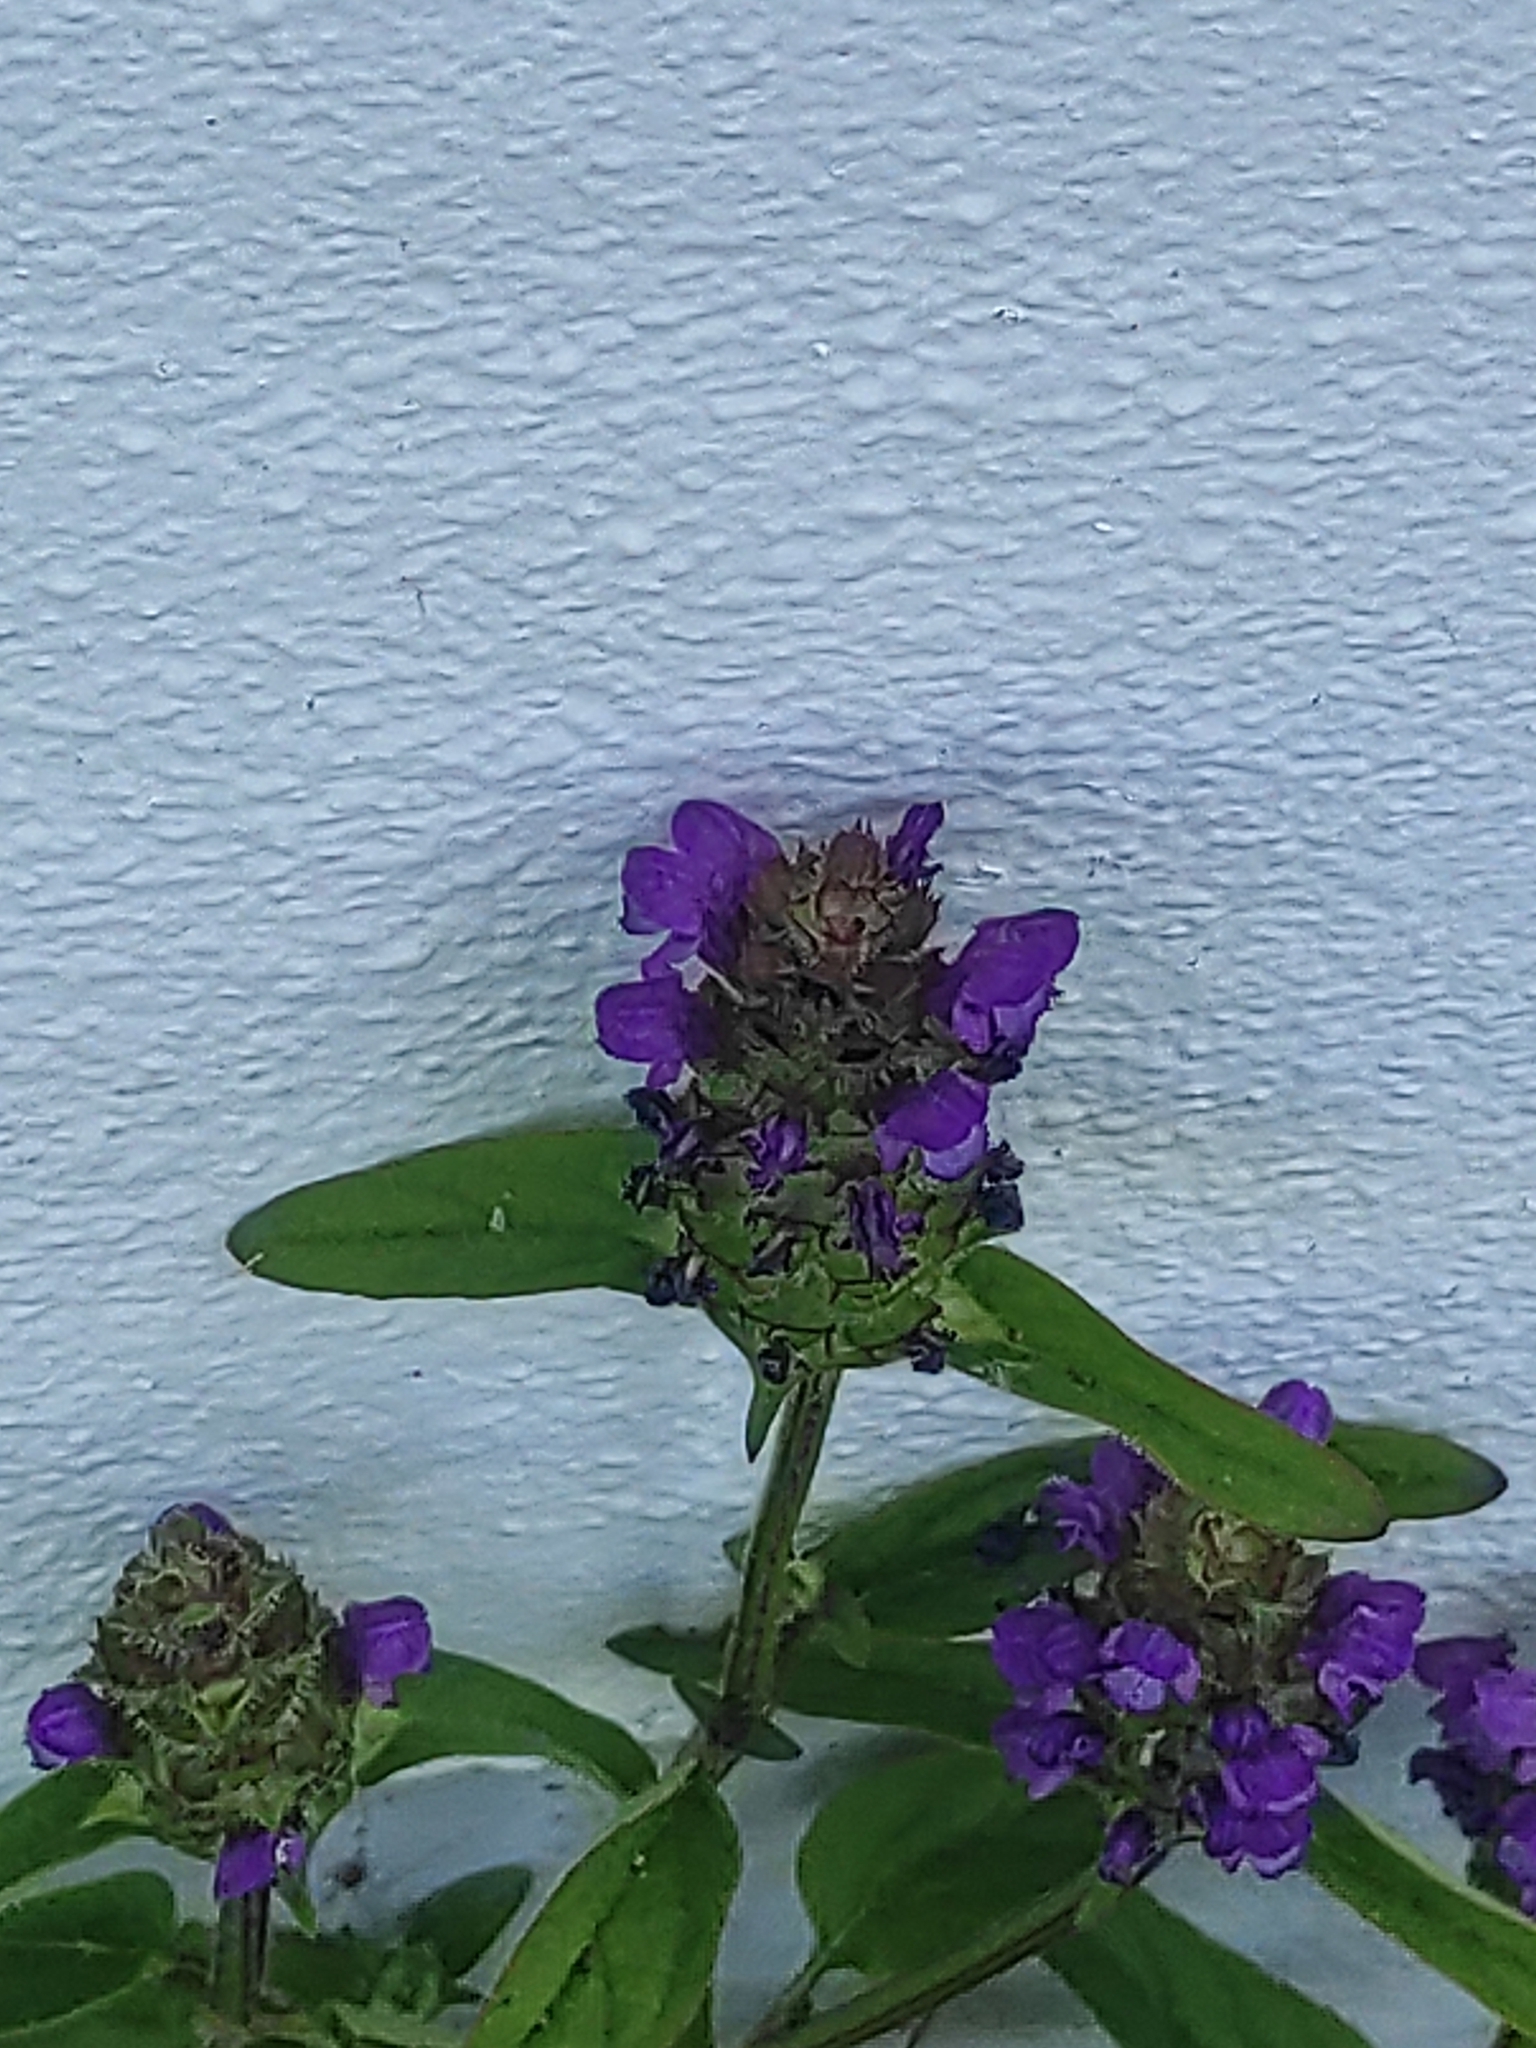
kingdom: Plantae
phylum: Tracheophyta
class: Magnoliopsida
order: Lamiales
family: Lamiaceae
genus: Prunella
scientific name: Prunella vulgaris
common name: Heal-all
